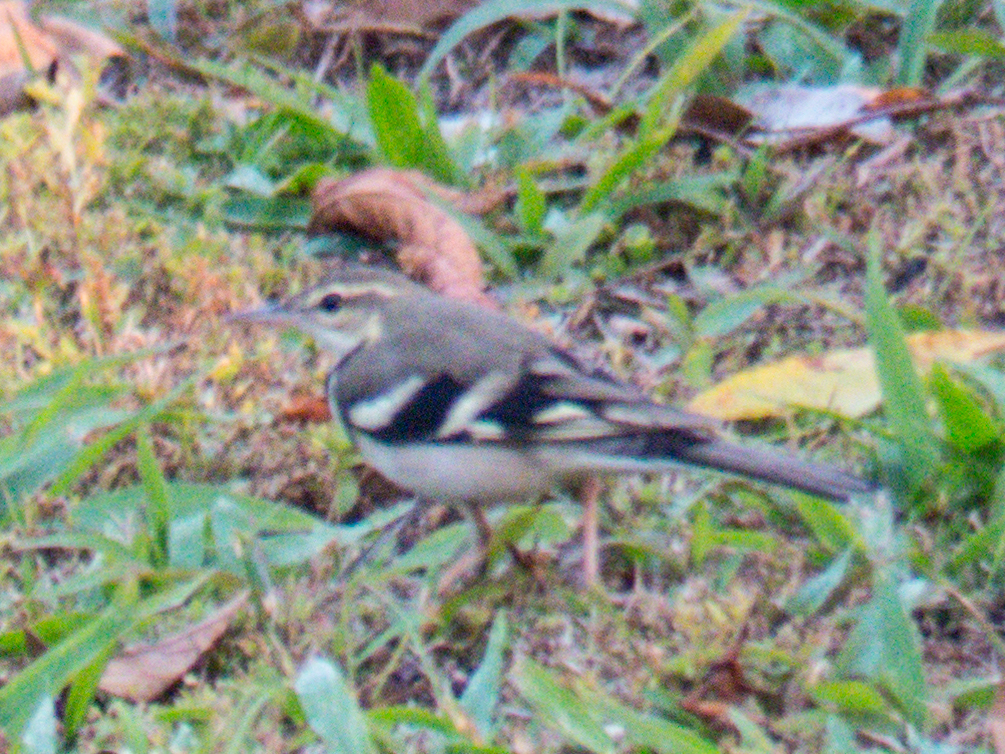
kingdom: Animalia
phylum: Chordata
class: Aves
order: Passeriformes
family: Motacillidae
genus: Dendronanthus
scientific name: Dendronanthus indicus
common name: Forest wagtail
